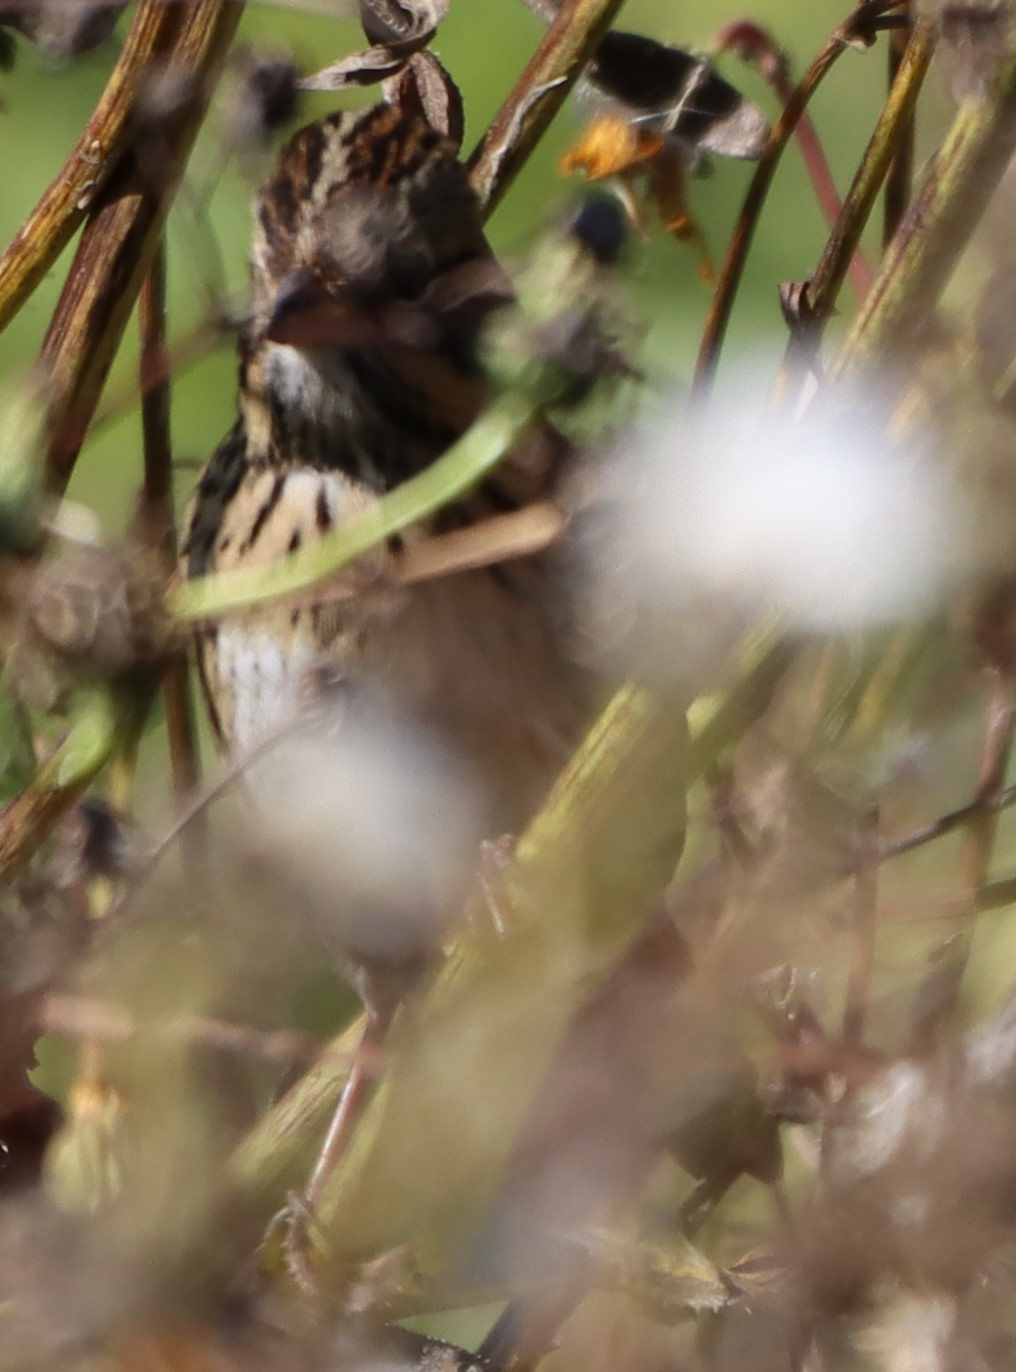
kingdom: Animalia
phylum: Chordata
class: Aves
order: Passeriformes
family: Passerellidae
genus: Melospiza
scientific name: Melospiza lincolnii
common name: Lincoln's sparrow
